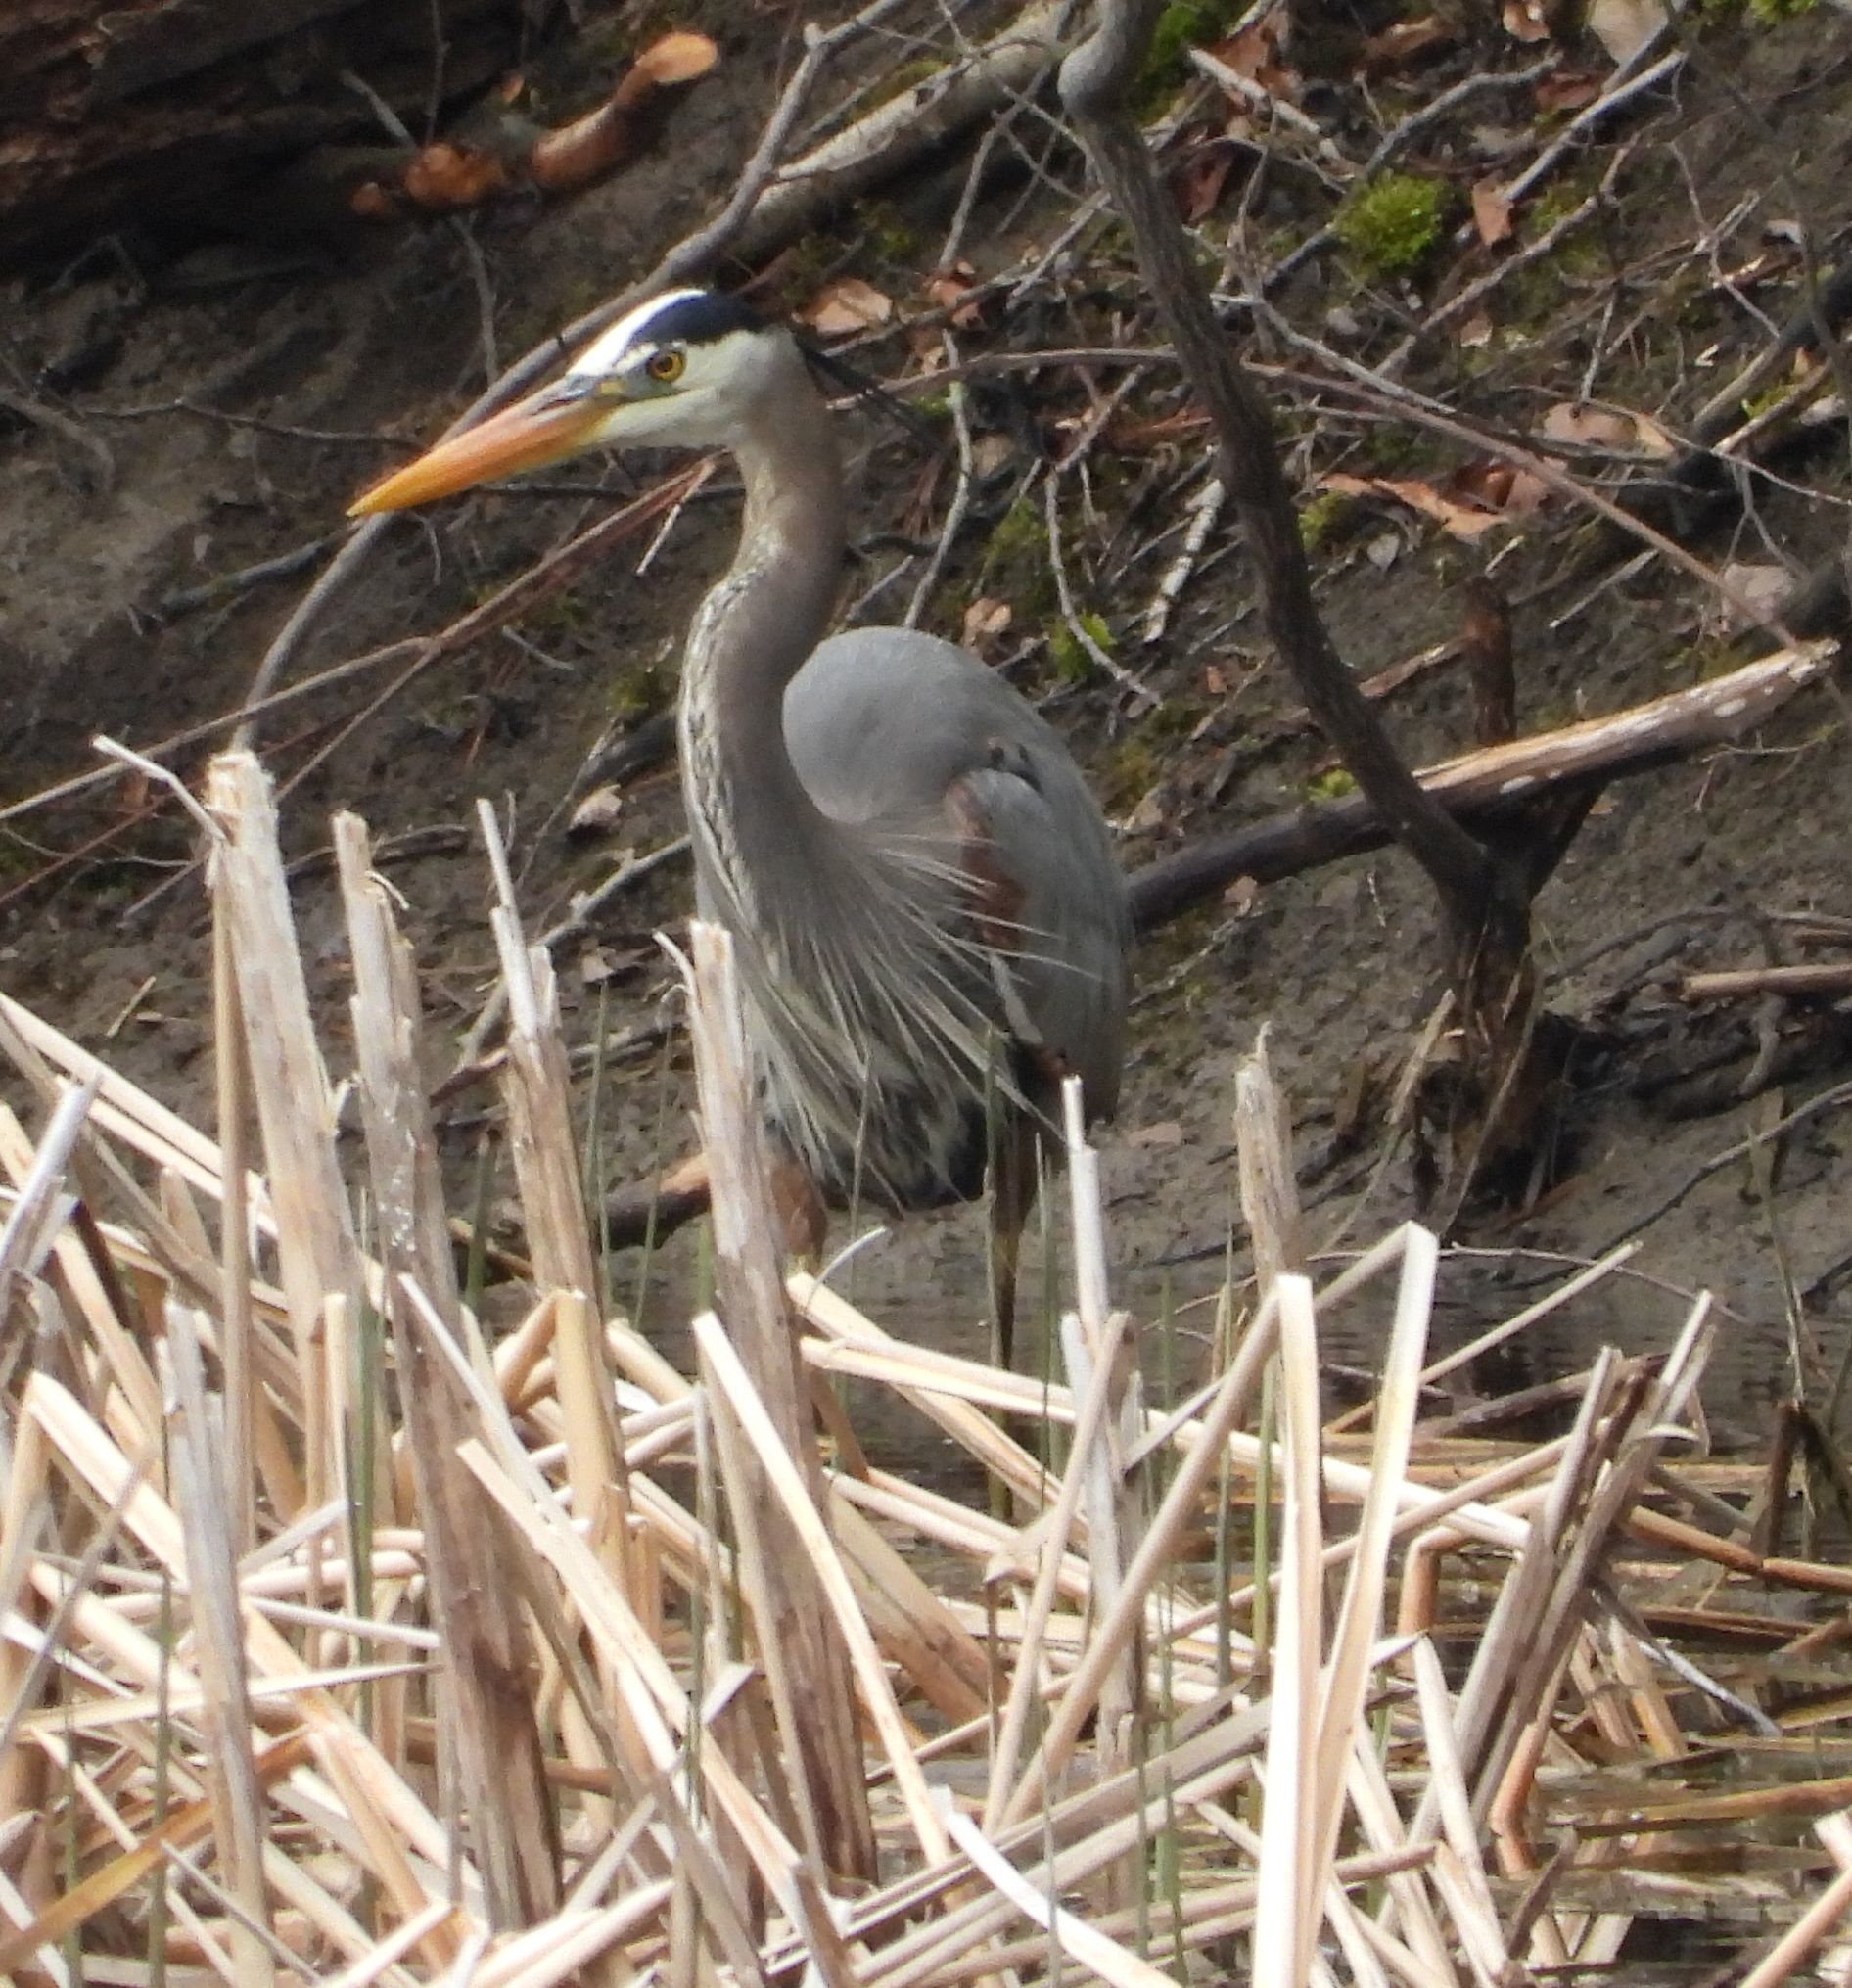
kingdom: Animalia
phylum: Chordata
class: Aves
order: Pelecaniformes
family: Ardeidae
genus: Ardea
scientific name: Ardea herodias
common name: Great blue heron
